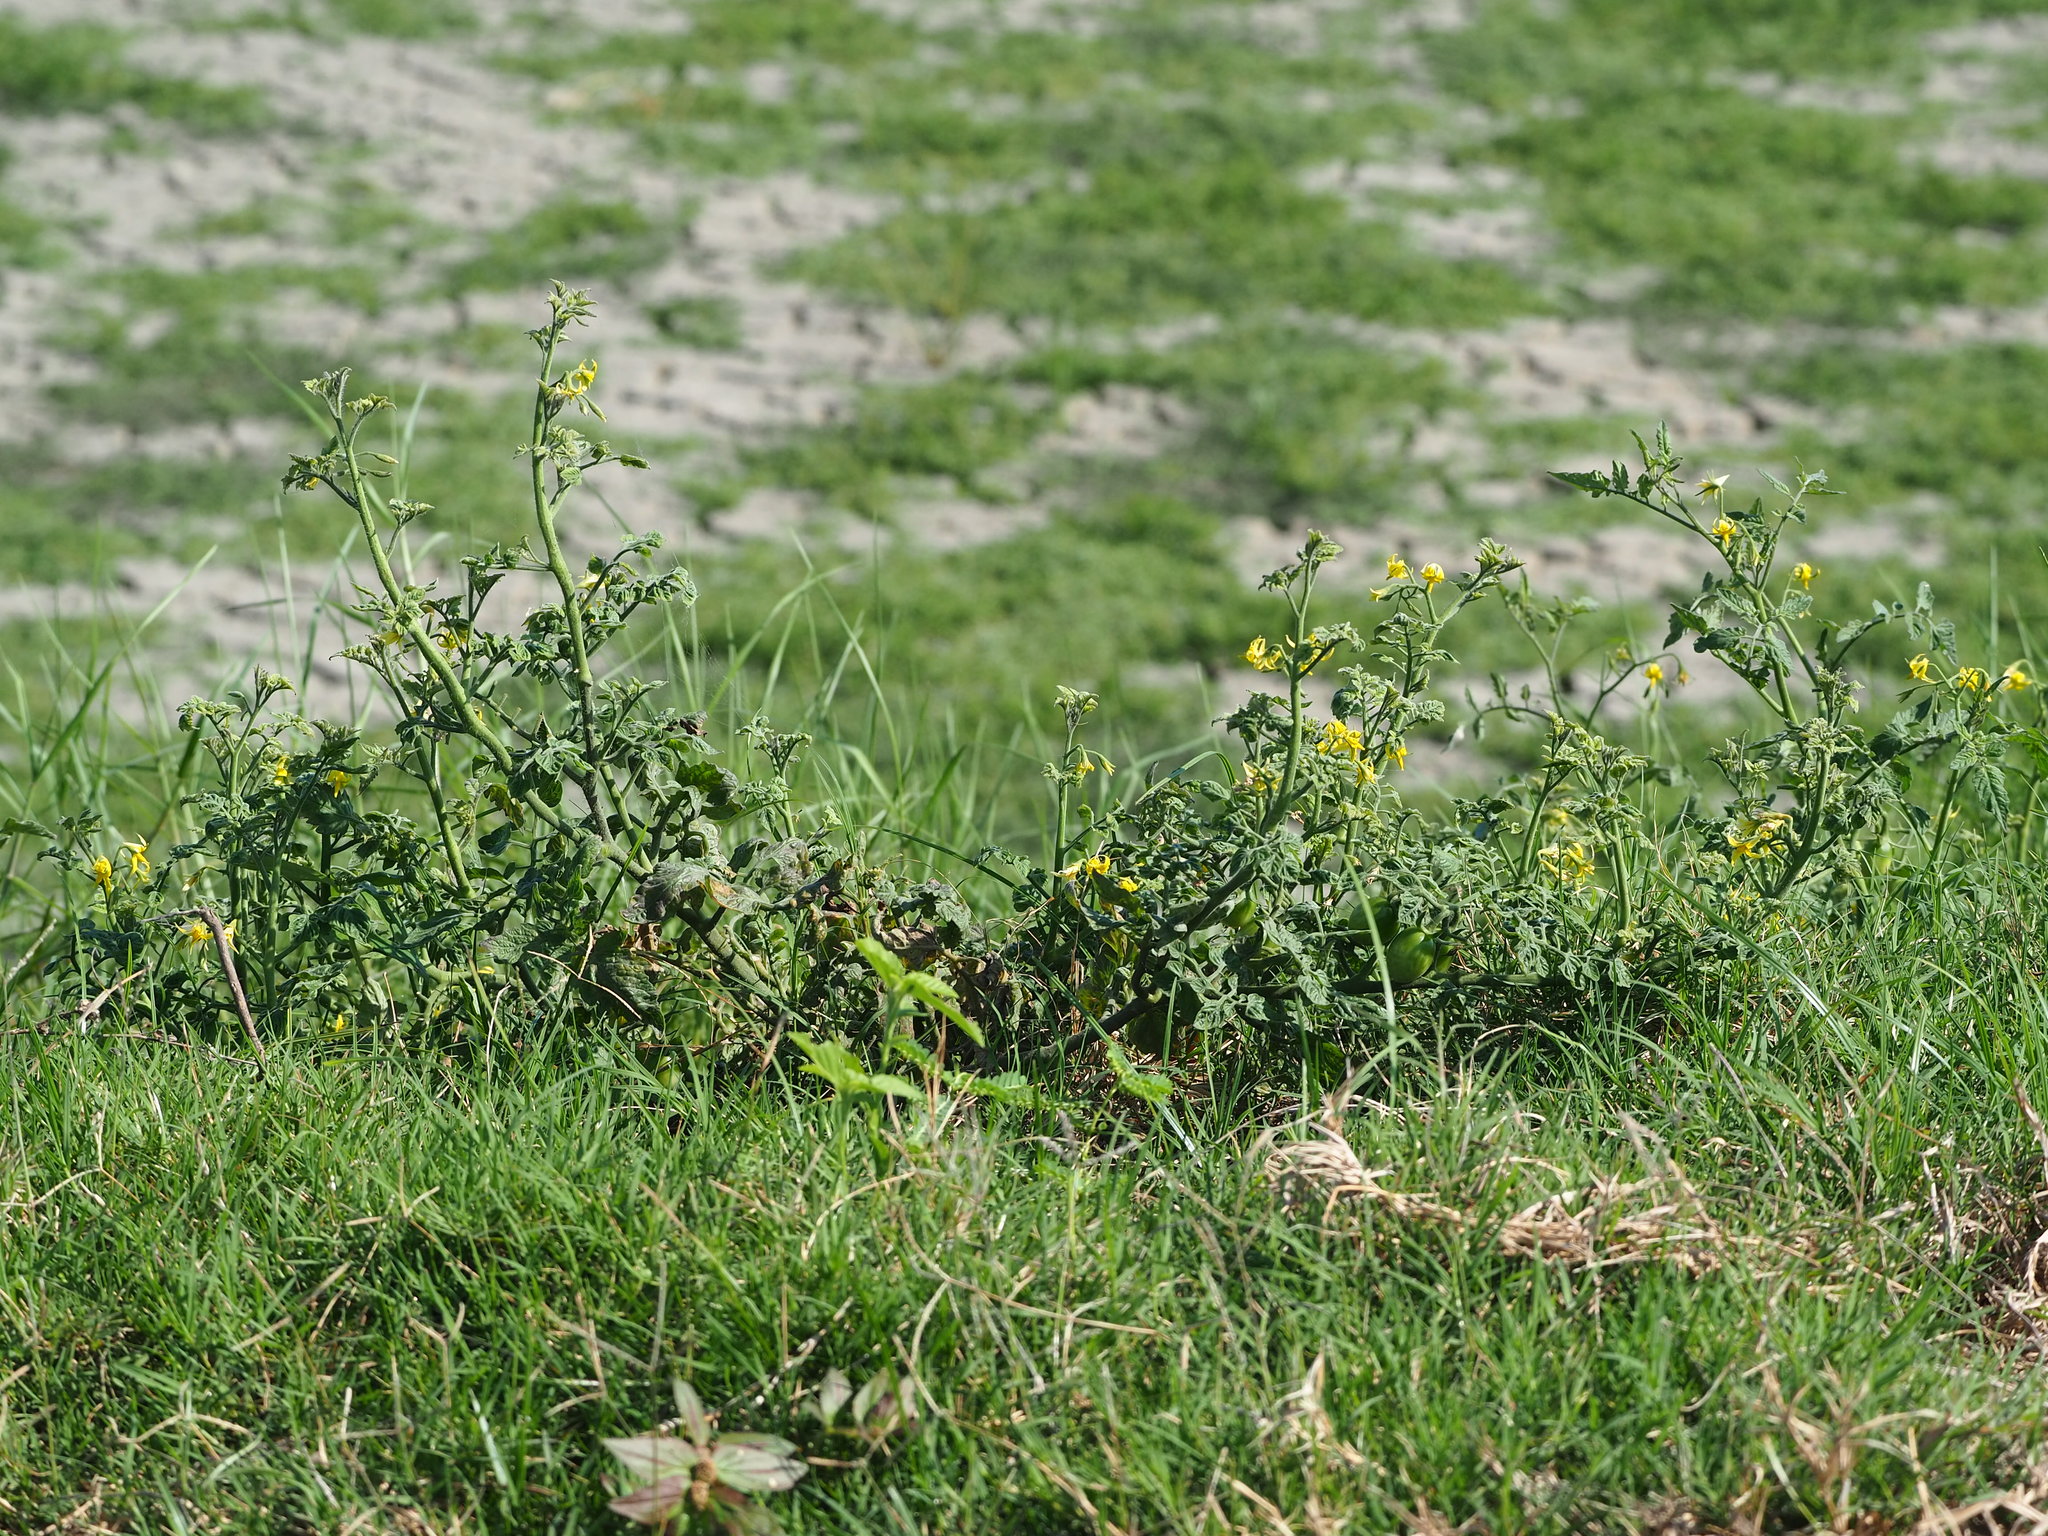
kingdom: Plantae
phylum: Tracheophyta
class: Magnoliopsida
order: Solanales
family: Solanaceae
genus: Solanum
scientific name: Solanum lycopersicum
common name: Garden tomato
